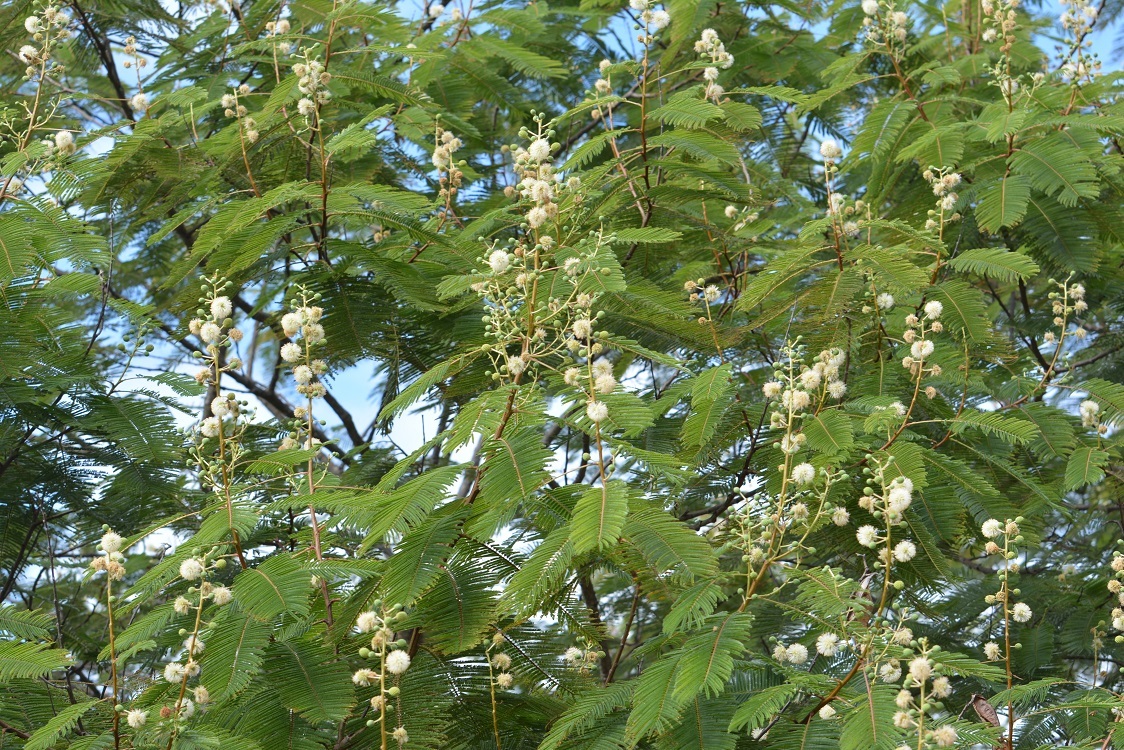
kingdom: Plantae
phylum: Tracheophyta
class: Magnoliopsida
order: Fabales
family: Fabaceae
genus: Leucaena
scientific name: Leucaena pulverulenta
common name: Great leadtree
